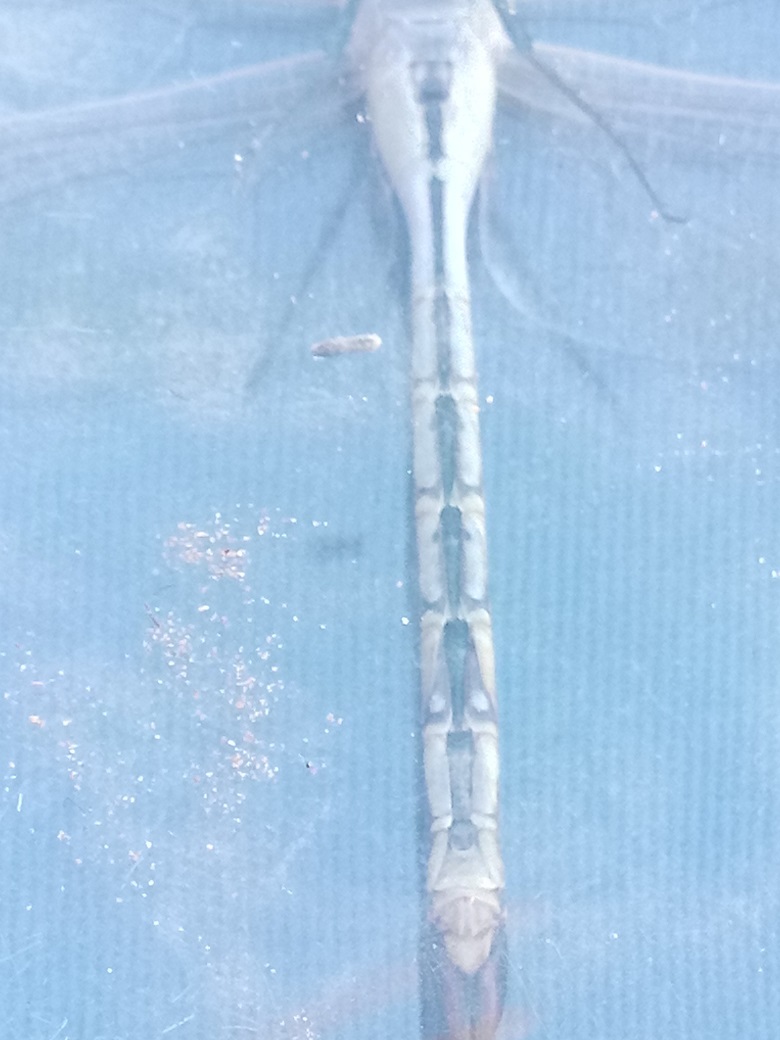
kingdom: Animalia
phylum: Arthropoda
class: Insecta
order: Odonata
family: Aeshnidae
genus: Anax
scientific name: Anax ephippiger
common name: Vagrant emperor
